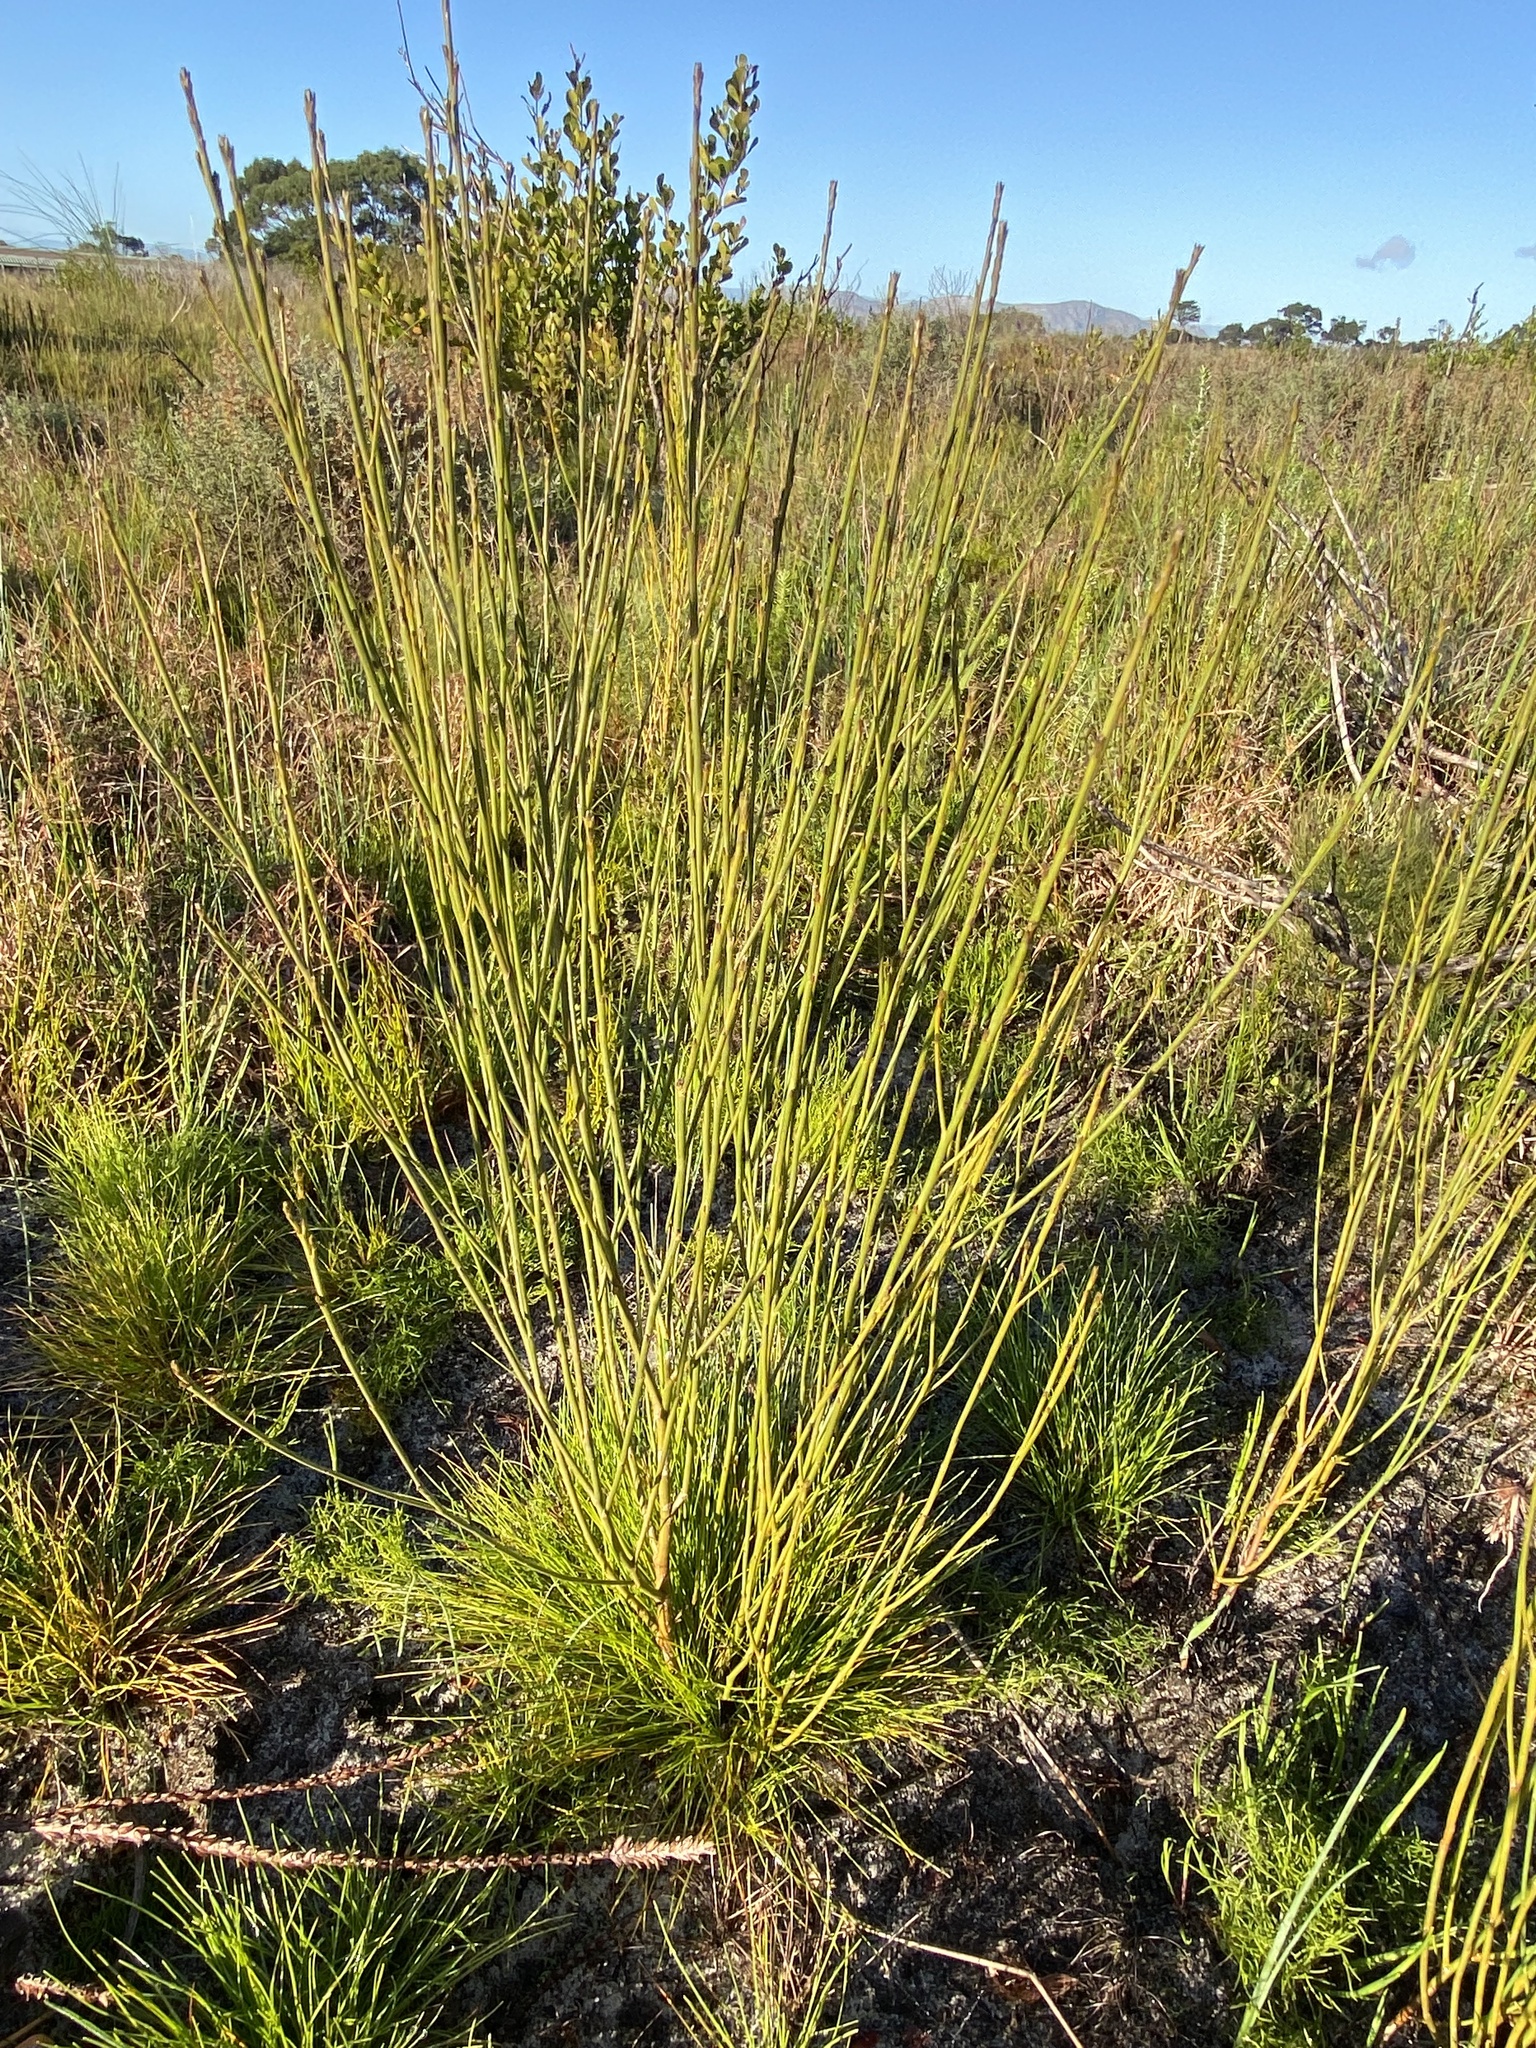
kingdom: Plantae
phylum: Tracheophyta
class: Magnoliopsida
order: Santalales
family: Thesiaceae
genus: Thesium
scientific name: Thesium strictum
